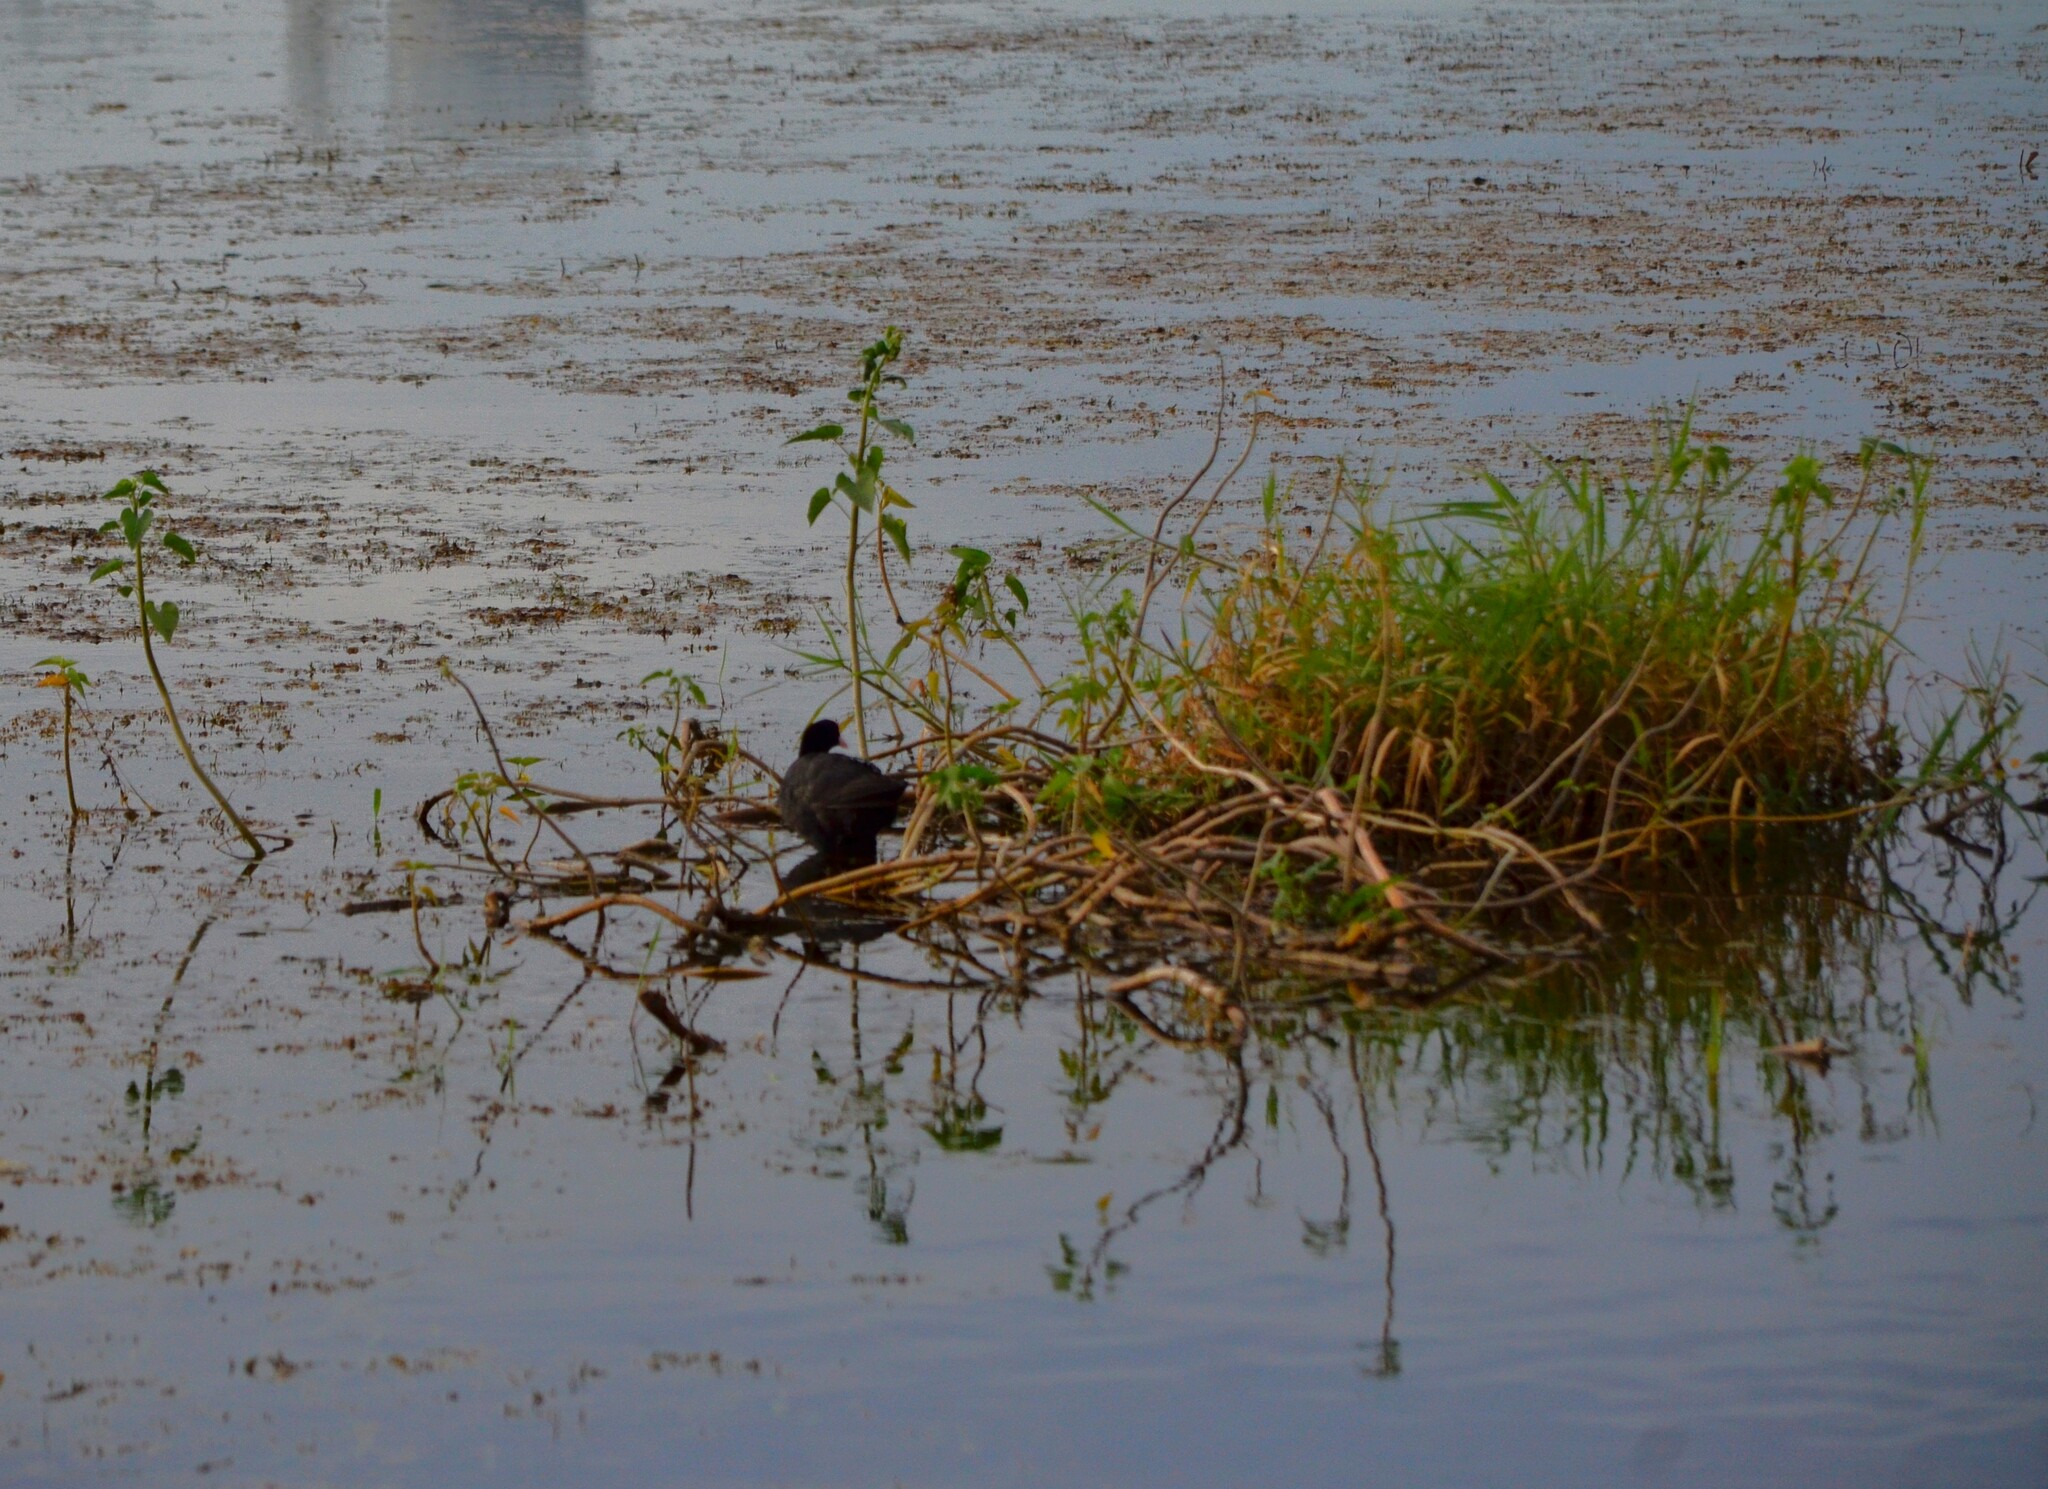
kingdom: Animalia
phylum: Chordata
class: Aves
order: Gruiformes
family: Rallidae
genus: Fulica
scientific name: Fulica atra
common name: Eurasian coot
